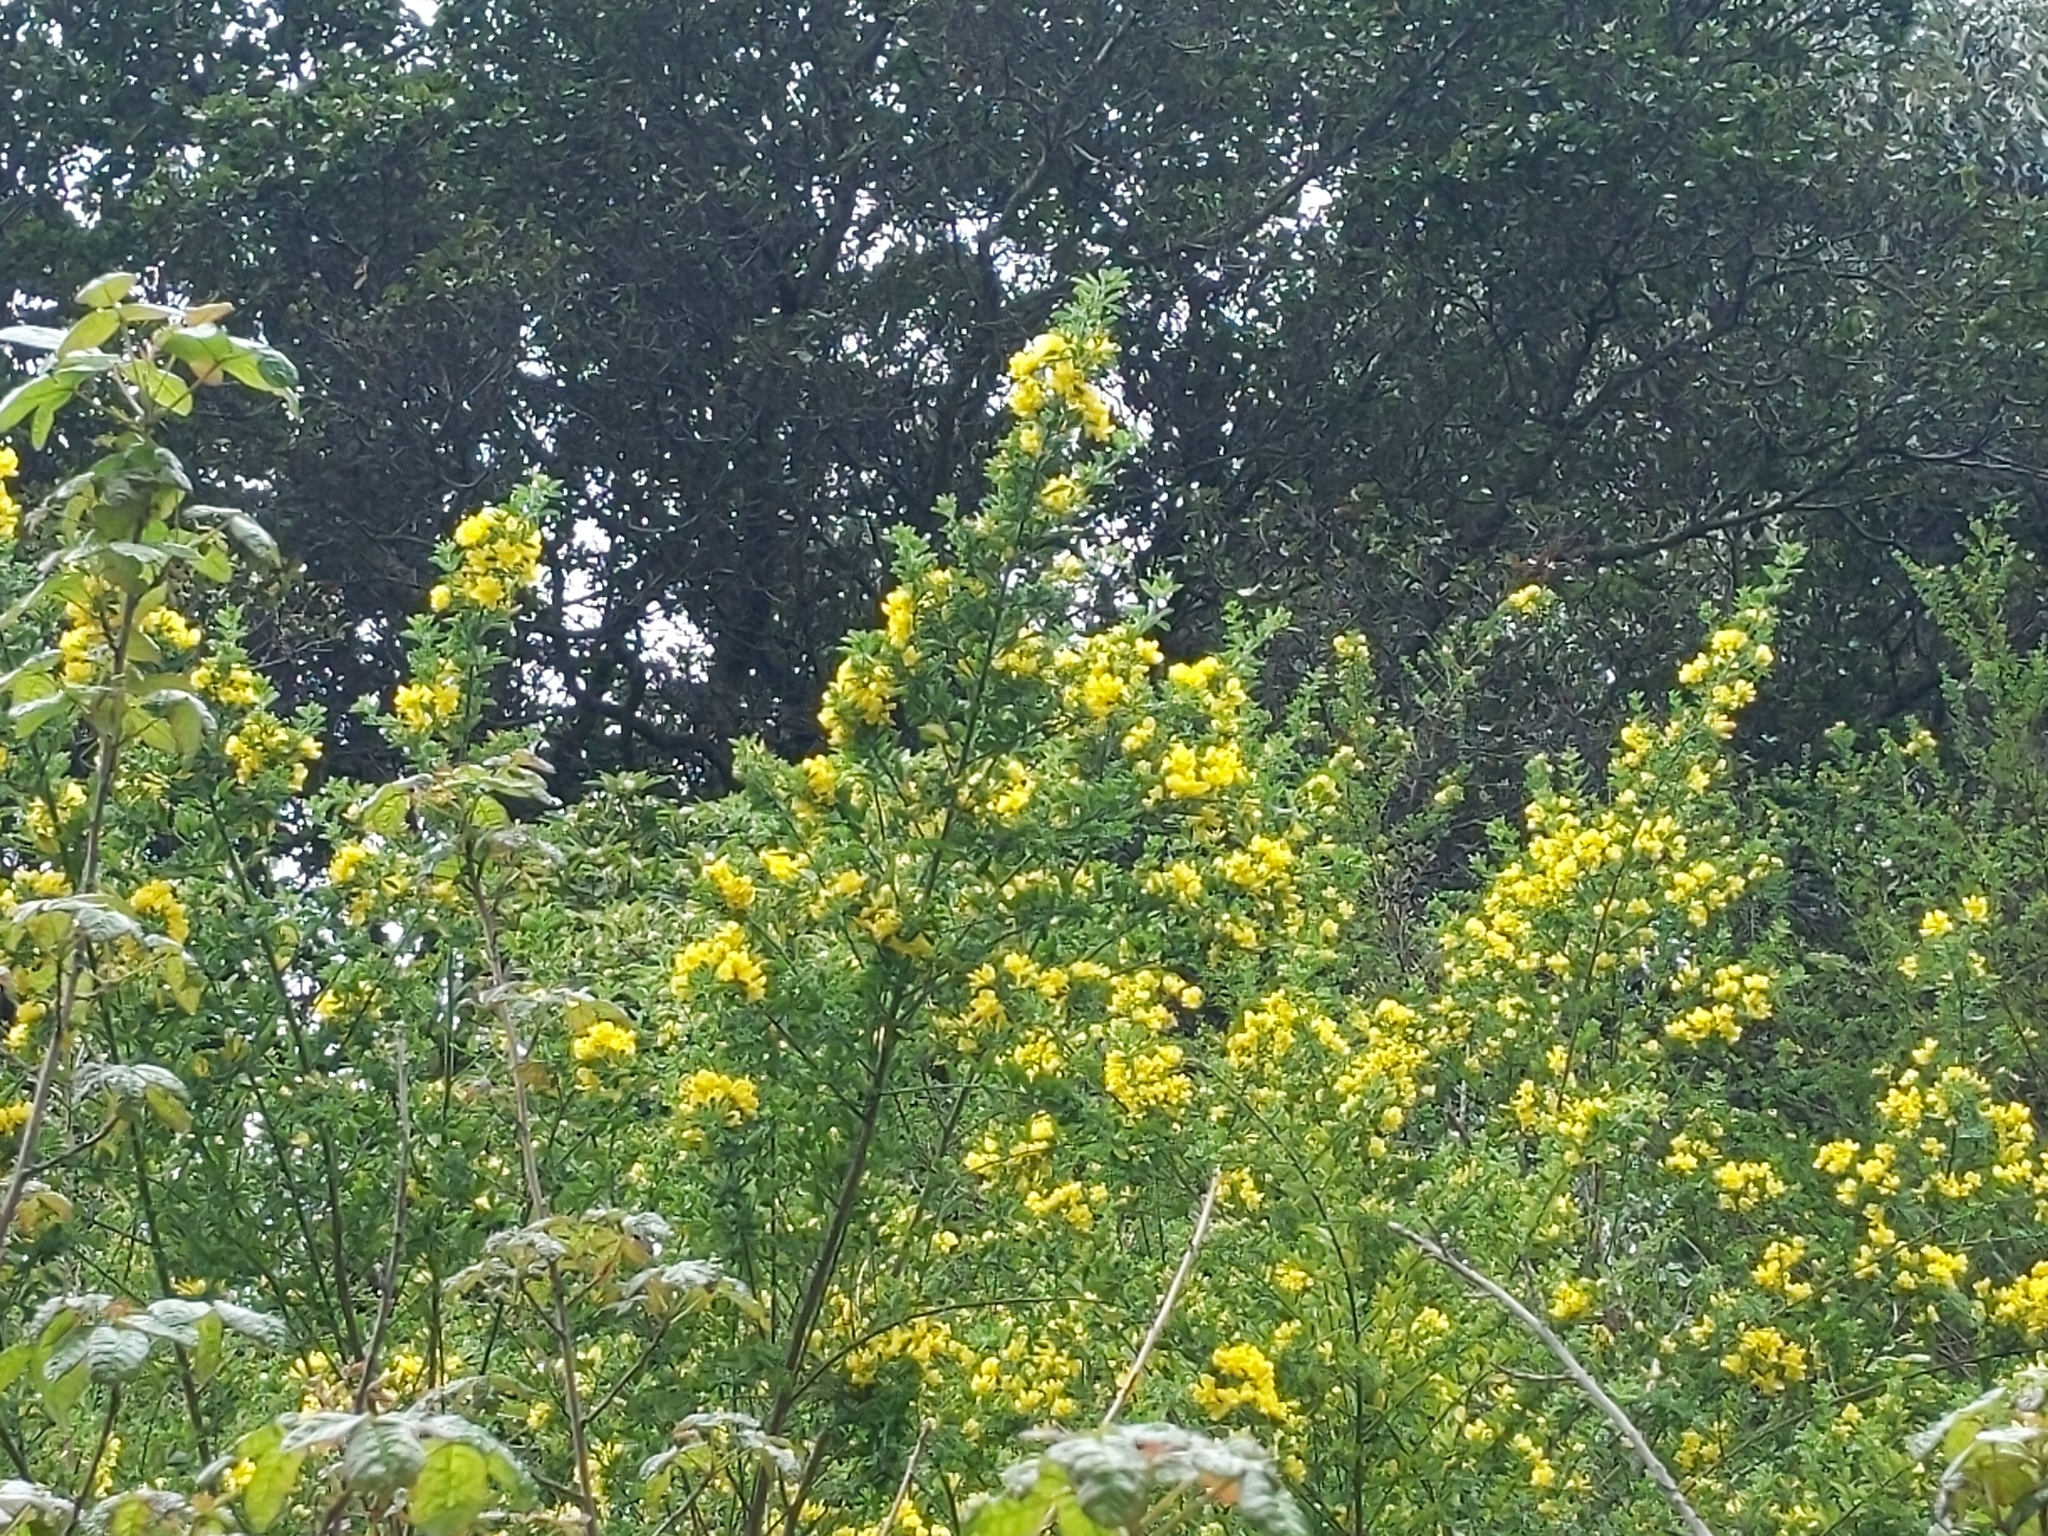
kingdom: Plantae
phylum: Tracheophyta
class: Magnoliopsida
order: Fabales
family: Fabaceae
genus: Genista
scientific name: Genista monspessulana
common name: Montpellier broom
